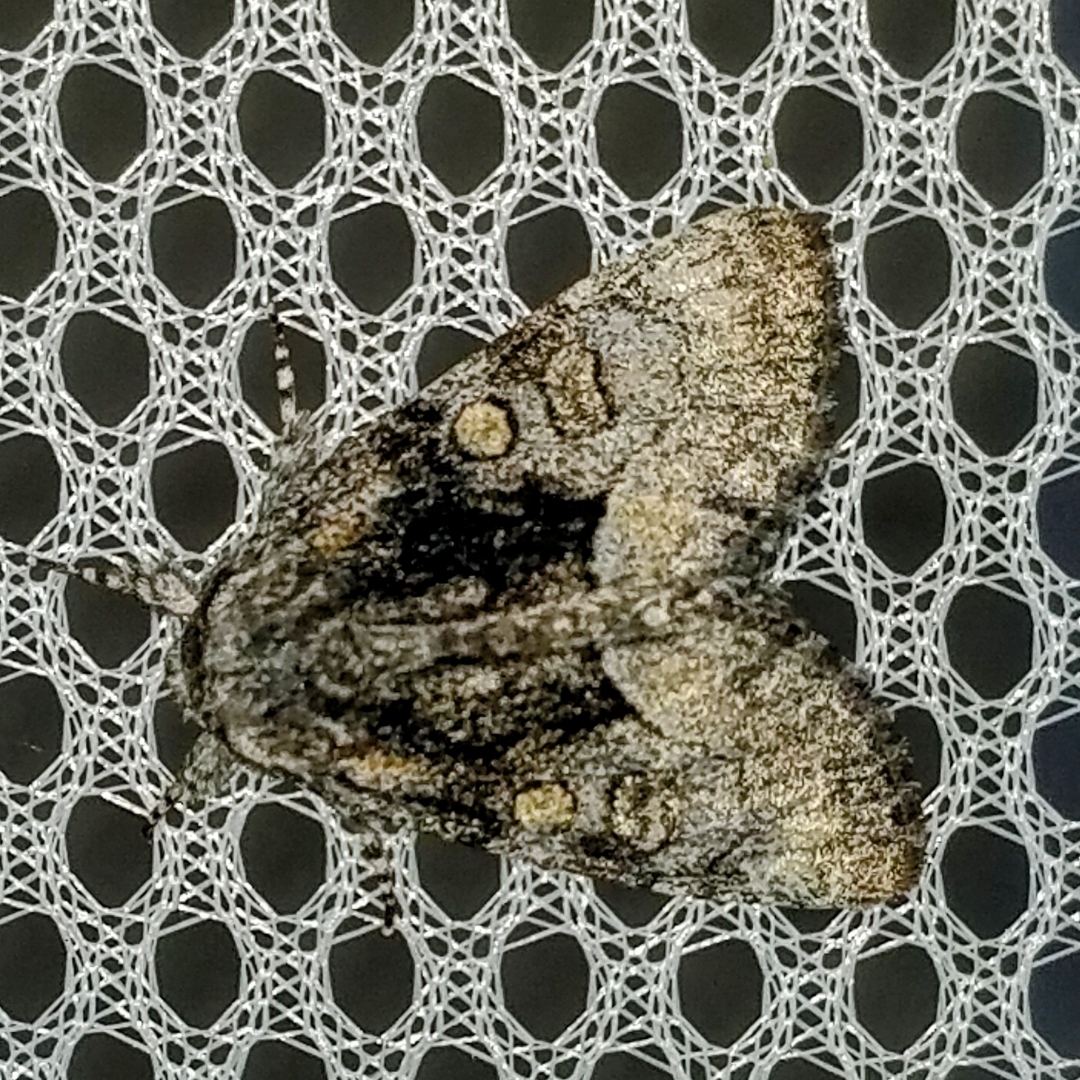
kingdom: Animalia
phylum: Arthropoda
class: Insecta
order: Lepidoptera
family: Noctuidae
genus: Raphia
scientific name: Raphia frater
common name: Brother
